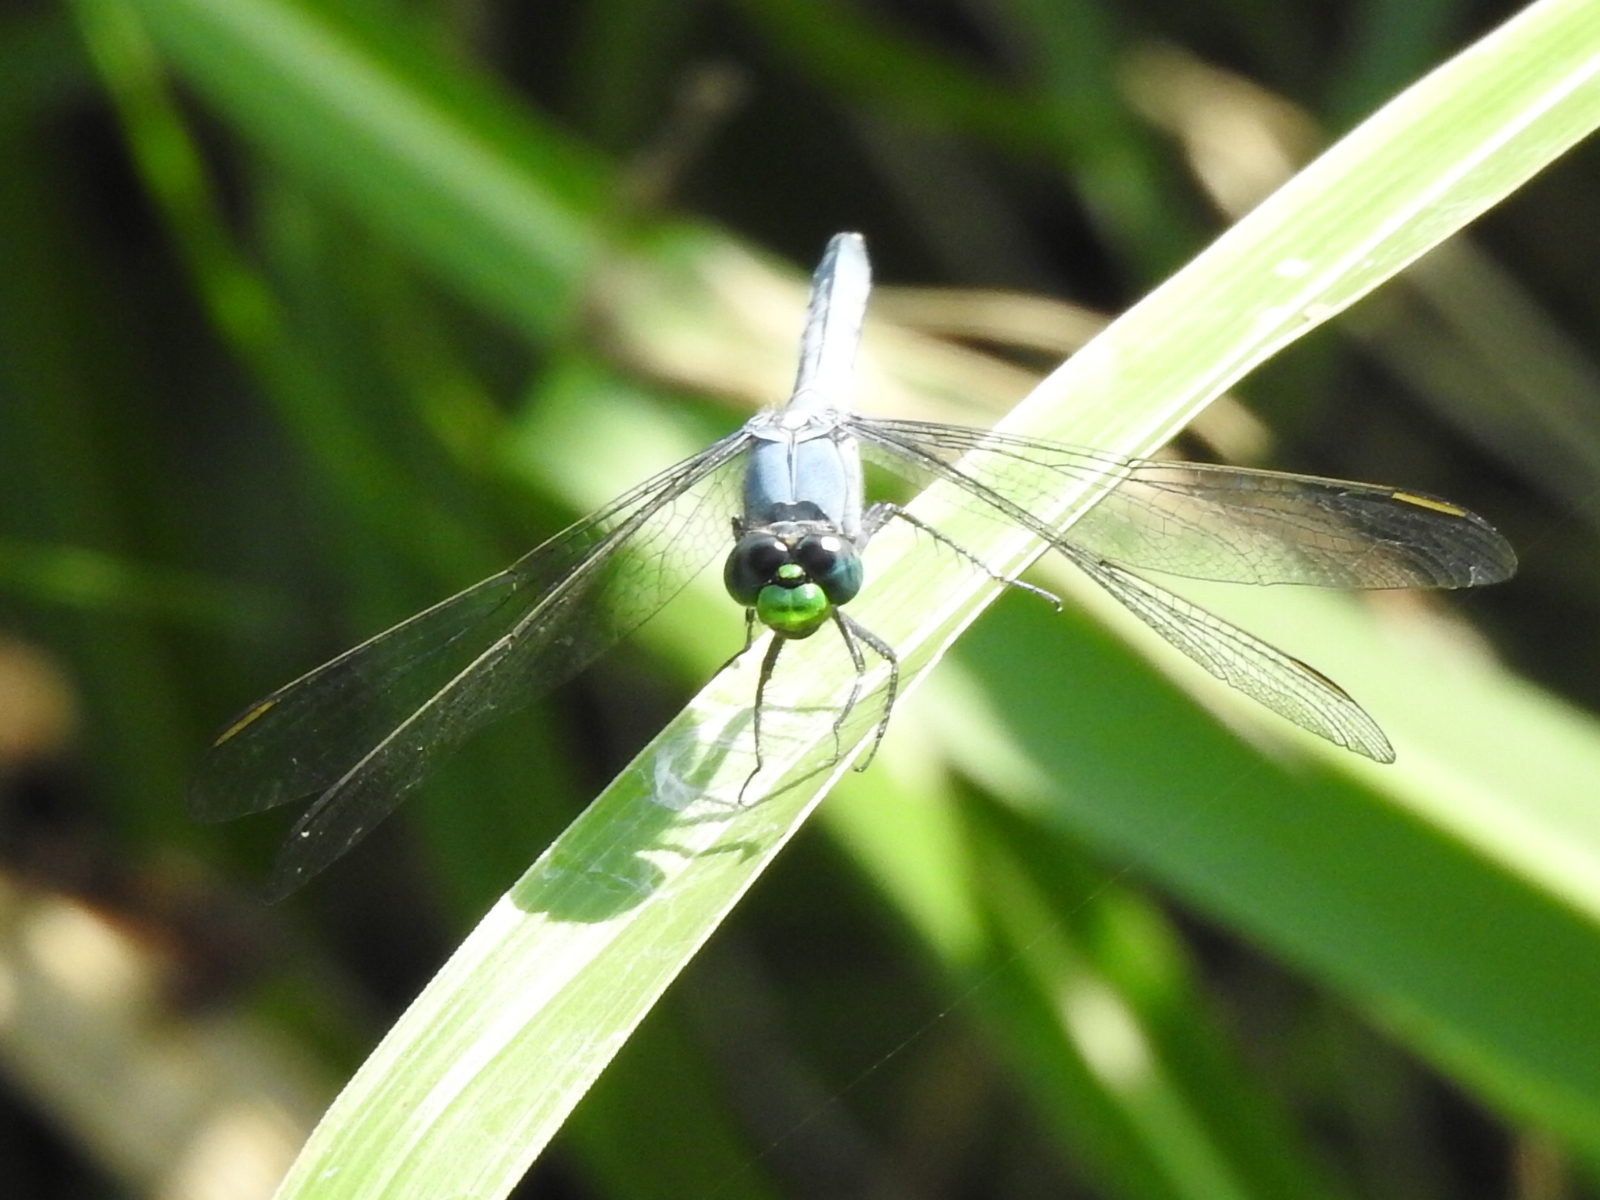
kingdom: Animalia
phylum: Arthropoda
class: Insecta
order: Odonata
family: Libellulidae
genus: Erythemis
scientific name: Erythemis simplicicollis
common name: Eastern pondhawk
